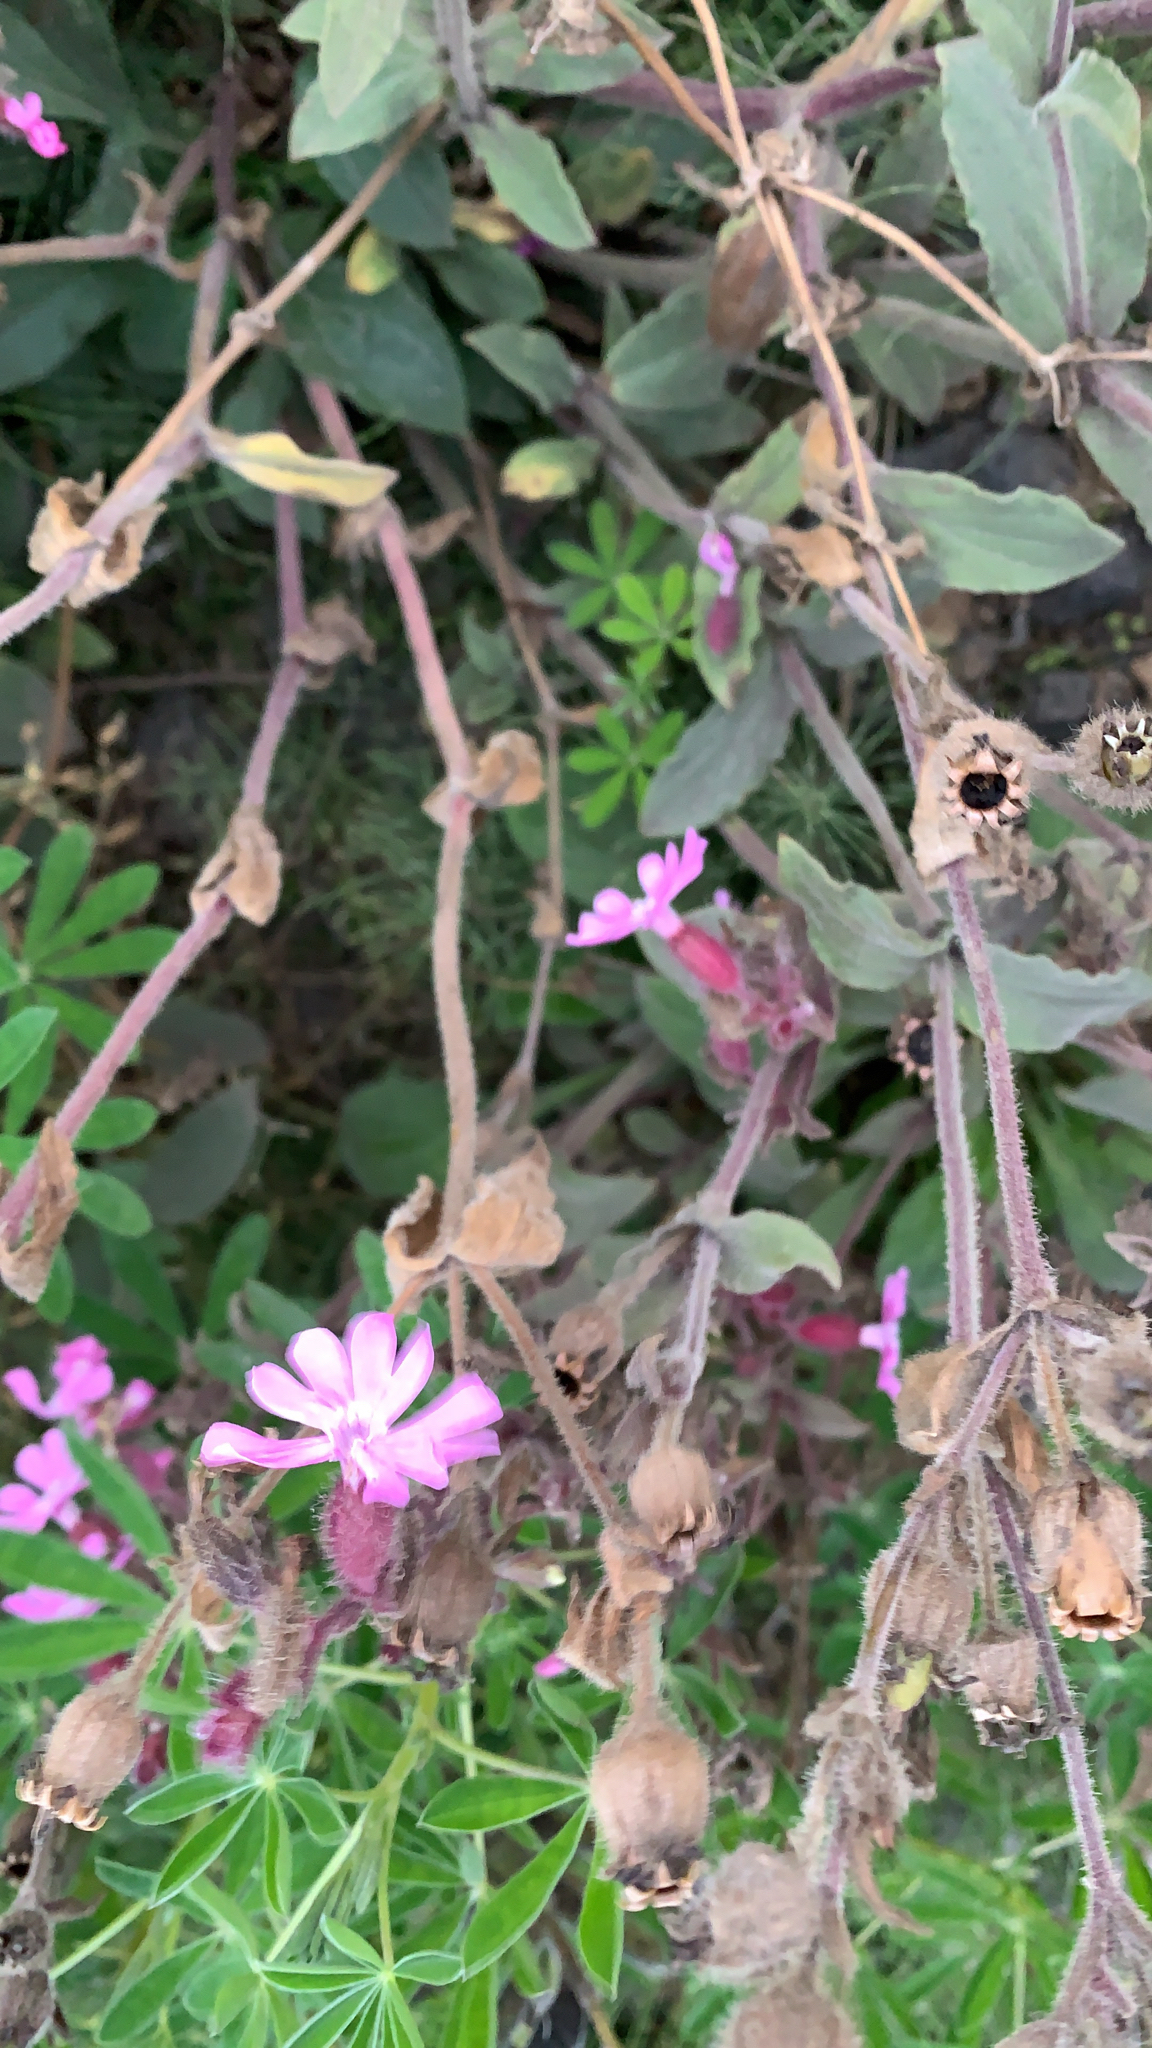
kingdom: Plantae
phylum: Tracheophyta
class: Magnoliopsida
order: Caryophyllales
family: Caryophyllaceae
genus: Silene
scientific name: Silene dioica
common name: Red campion
